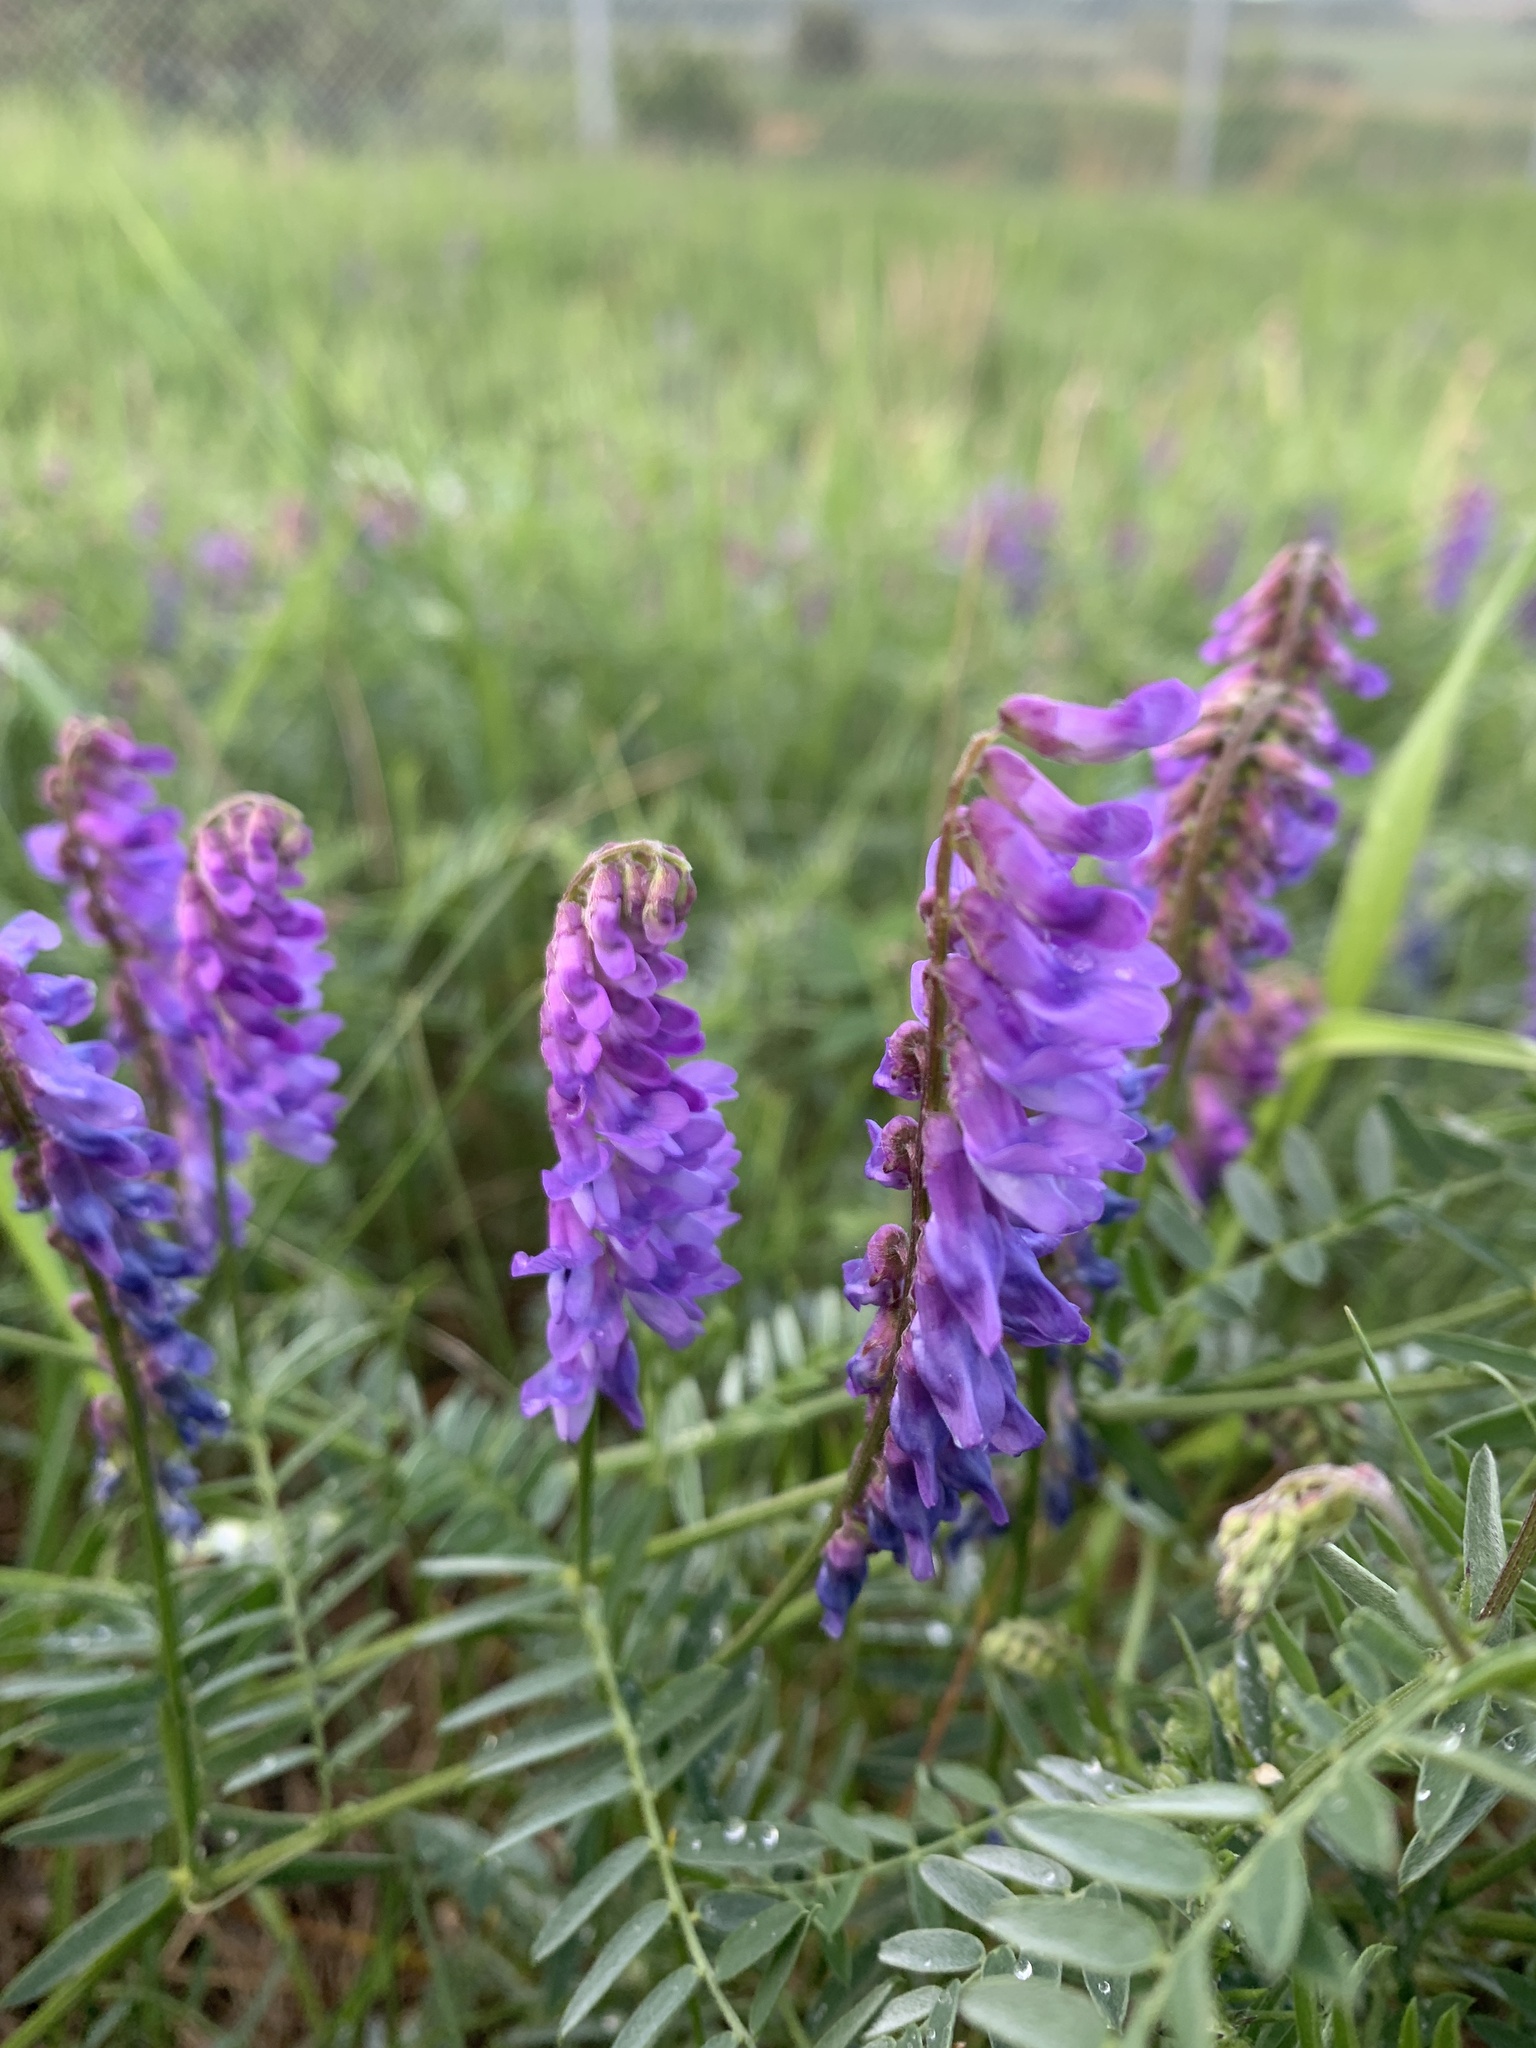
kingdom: Plantae
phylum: Tracheophyta
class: Magnoliopsida
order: Fabales
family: Fabaceae
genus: Vicia
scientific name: Vicia cracca
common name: Bird vetch
